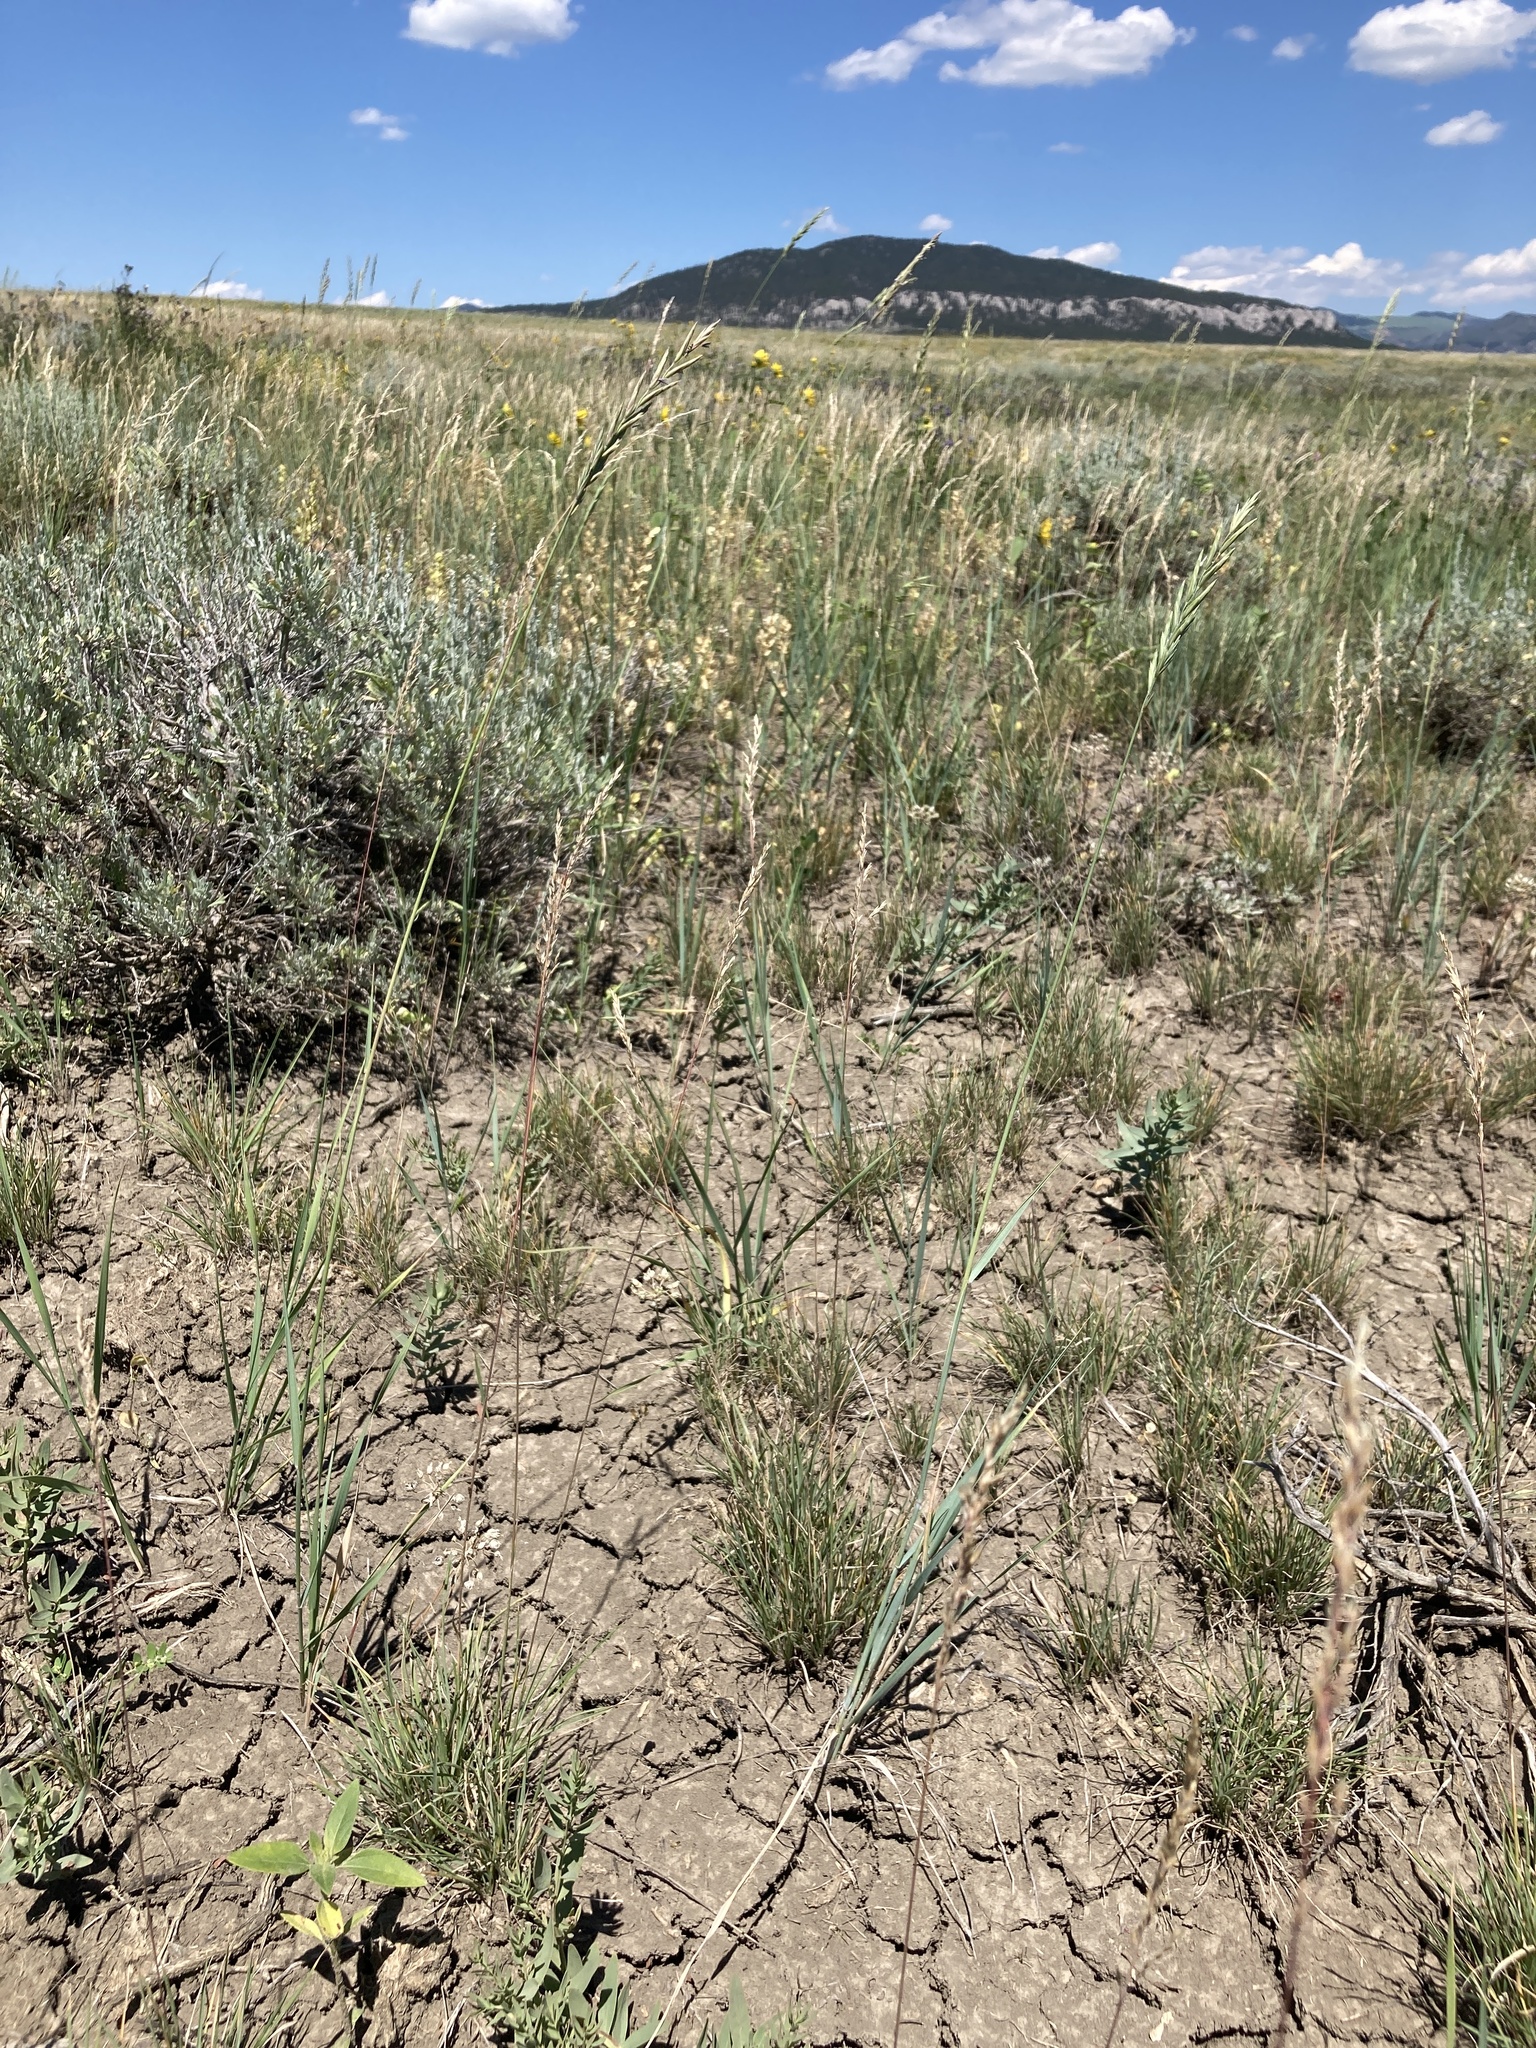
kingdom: Plantae
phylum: Tracheophyta
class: Liliopsida
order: Poales
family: Poaceae
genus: Elymus
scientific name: Elymus smithii
